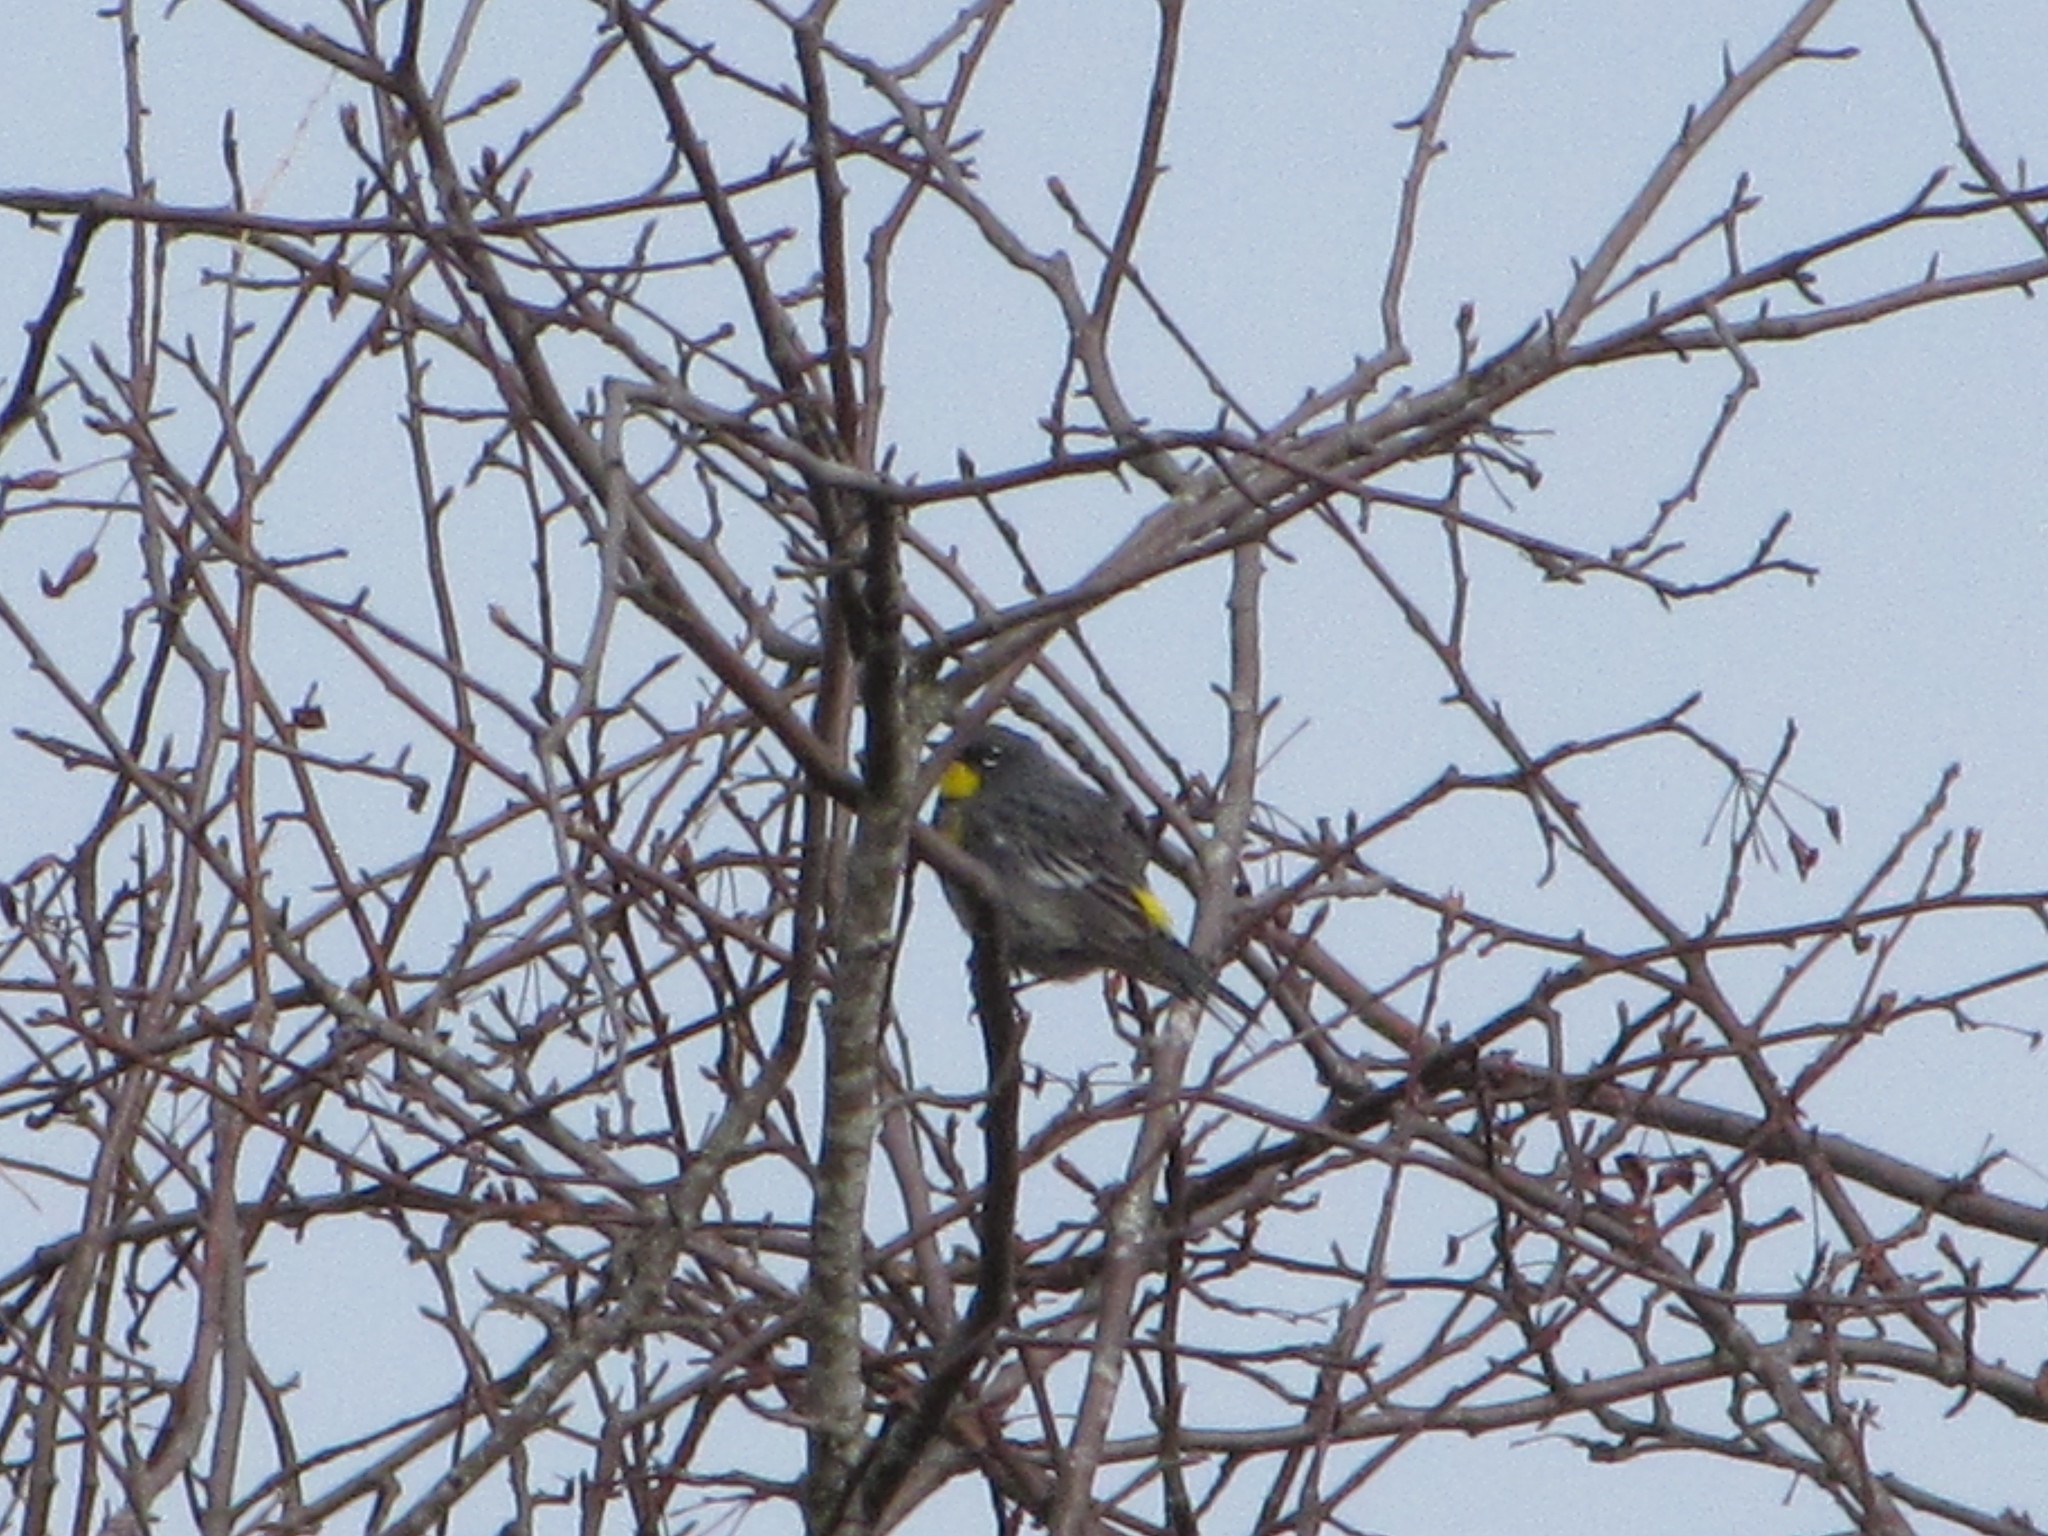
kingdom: Animalia
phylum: Chordata
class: Aves
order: Passeriformes
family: Parulidae
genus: Setophaga
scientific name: Setophaga coronata
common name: Myrtle warbler
